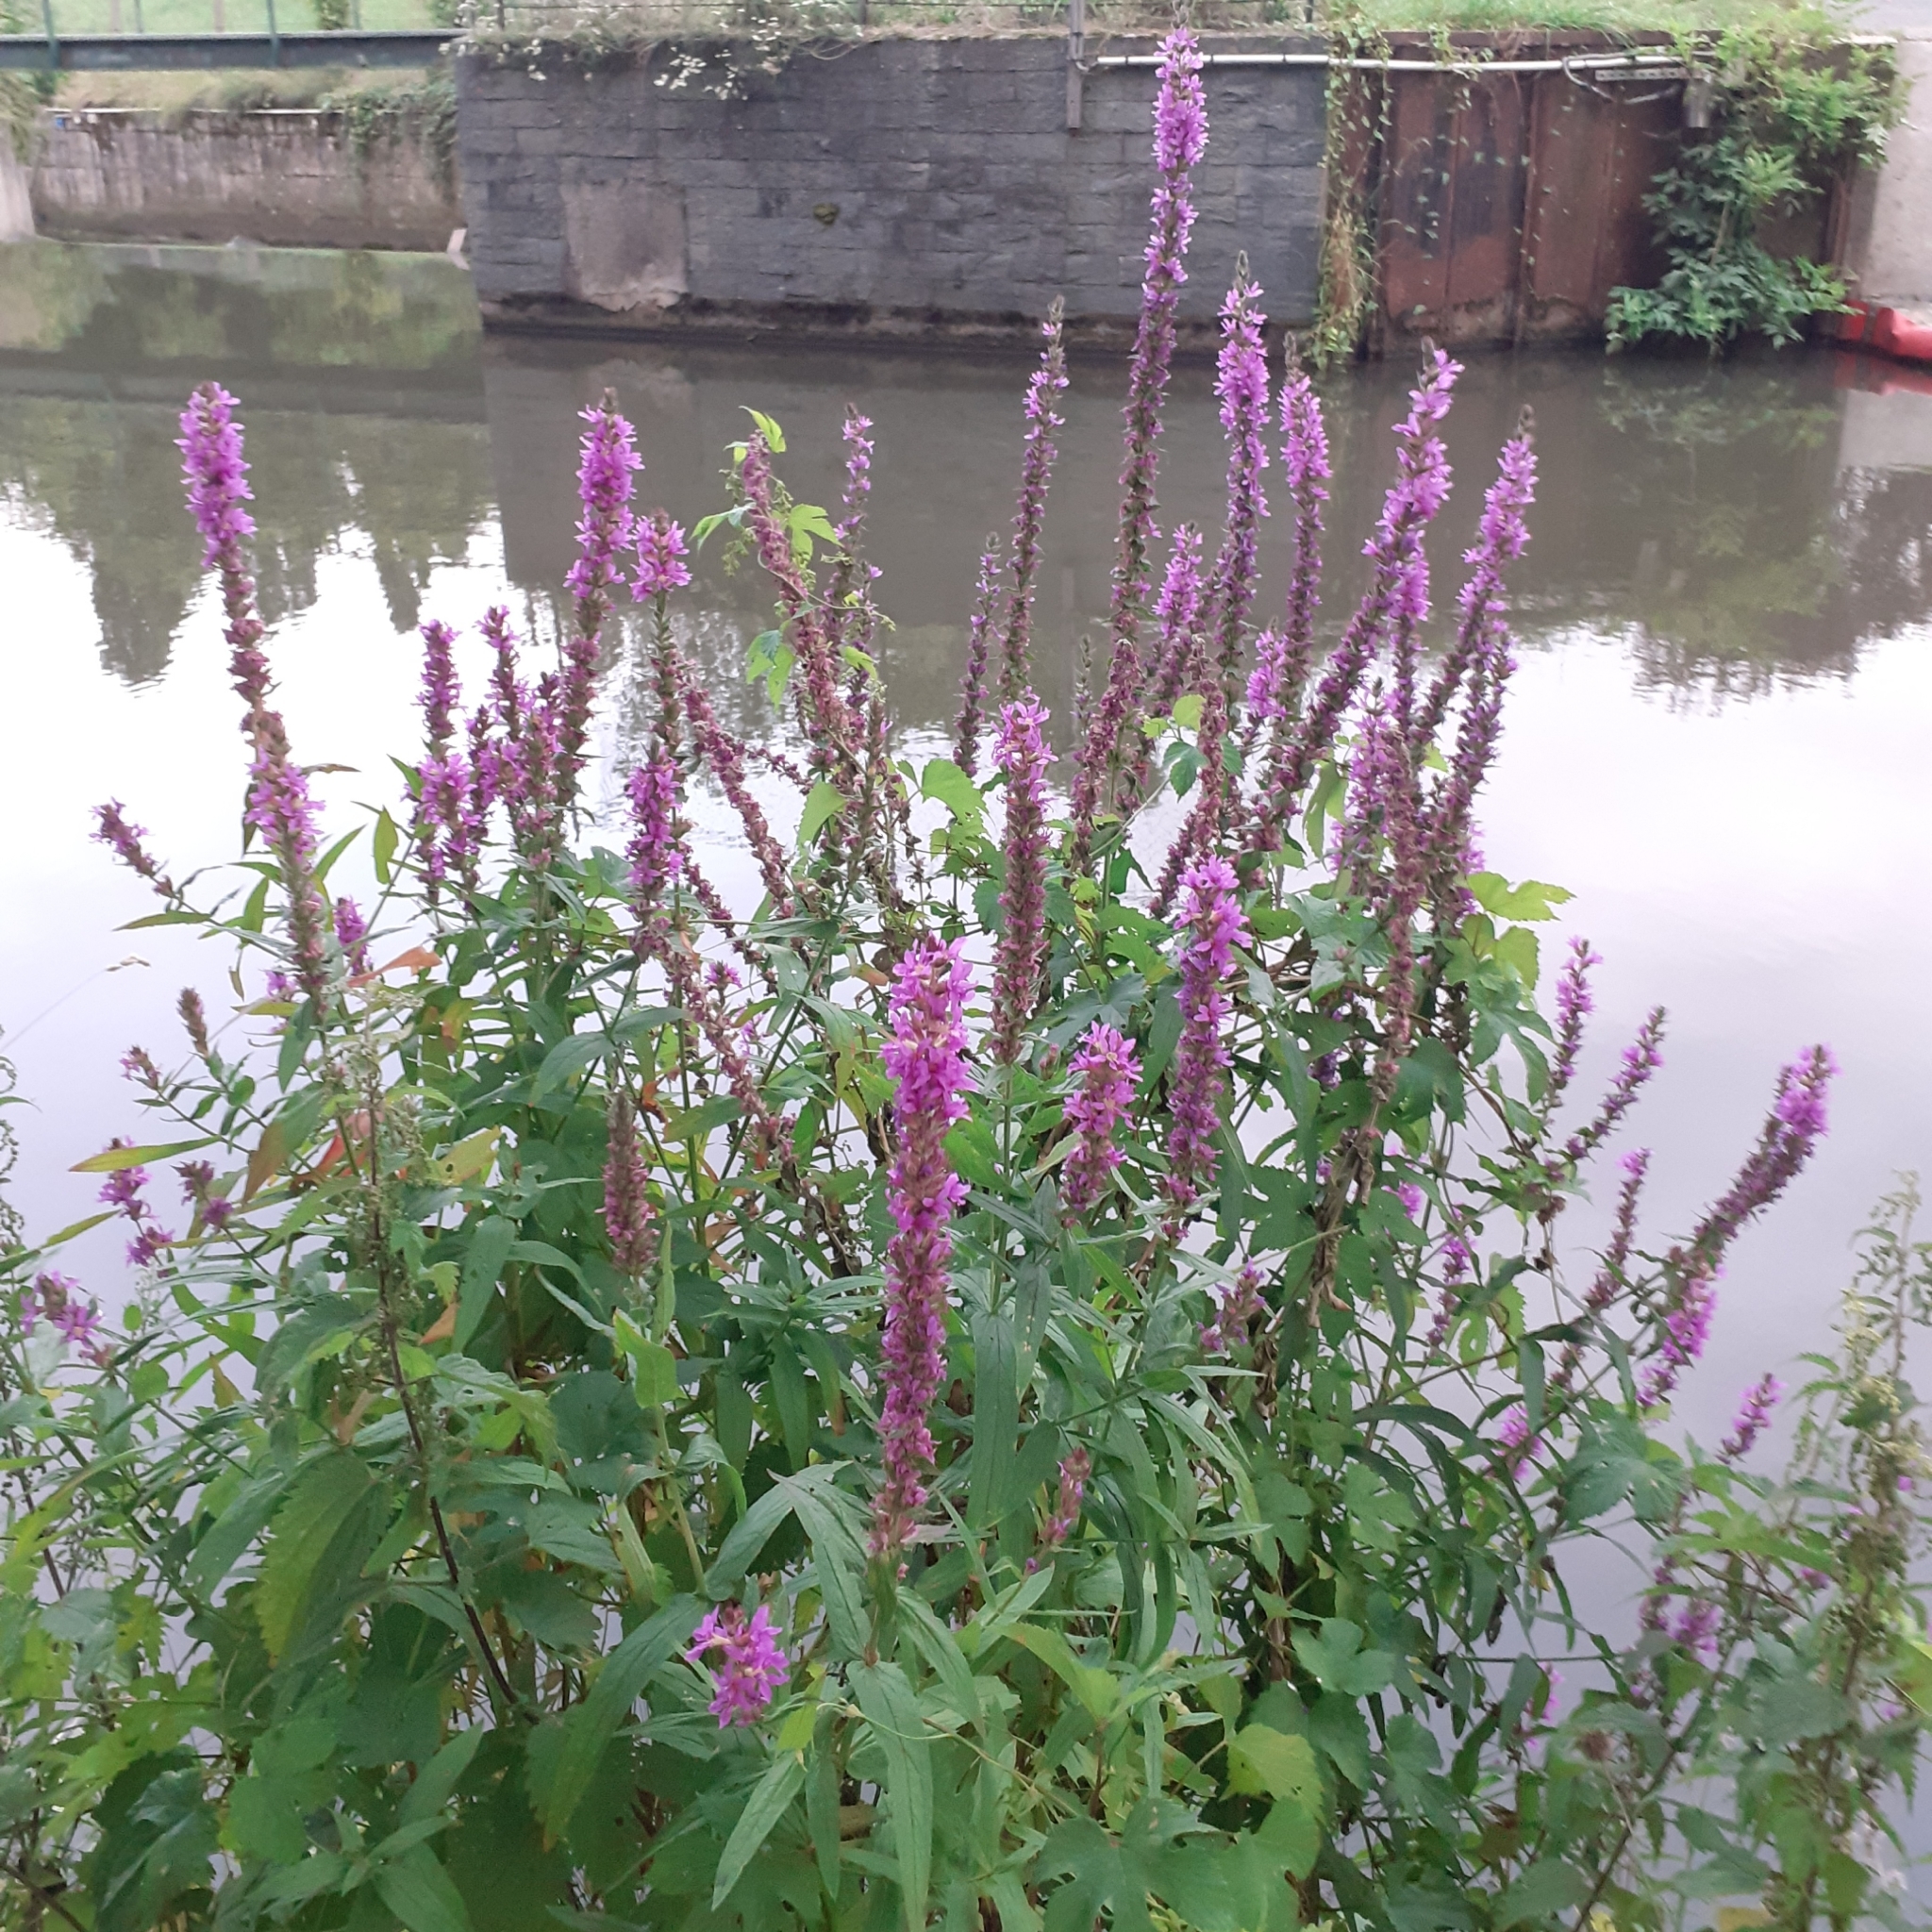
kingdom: Plantae
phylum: Tracheophyta
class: Magnoliopsida
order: Myrtales
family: Lythraceae
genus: Lythrum
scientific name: Lythrum salicaria
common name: Purple loosestrife
